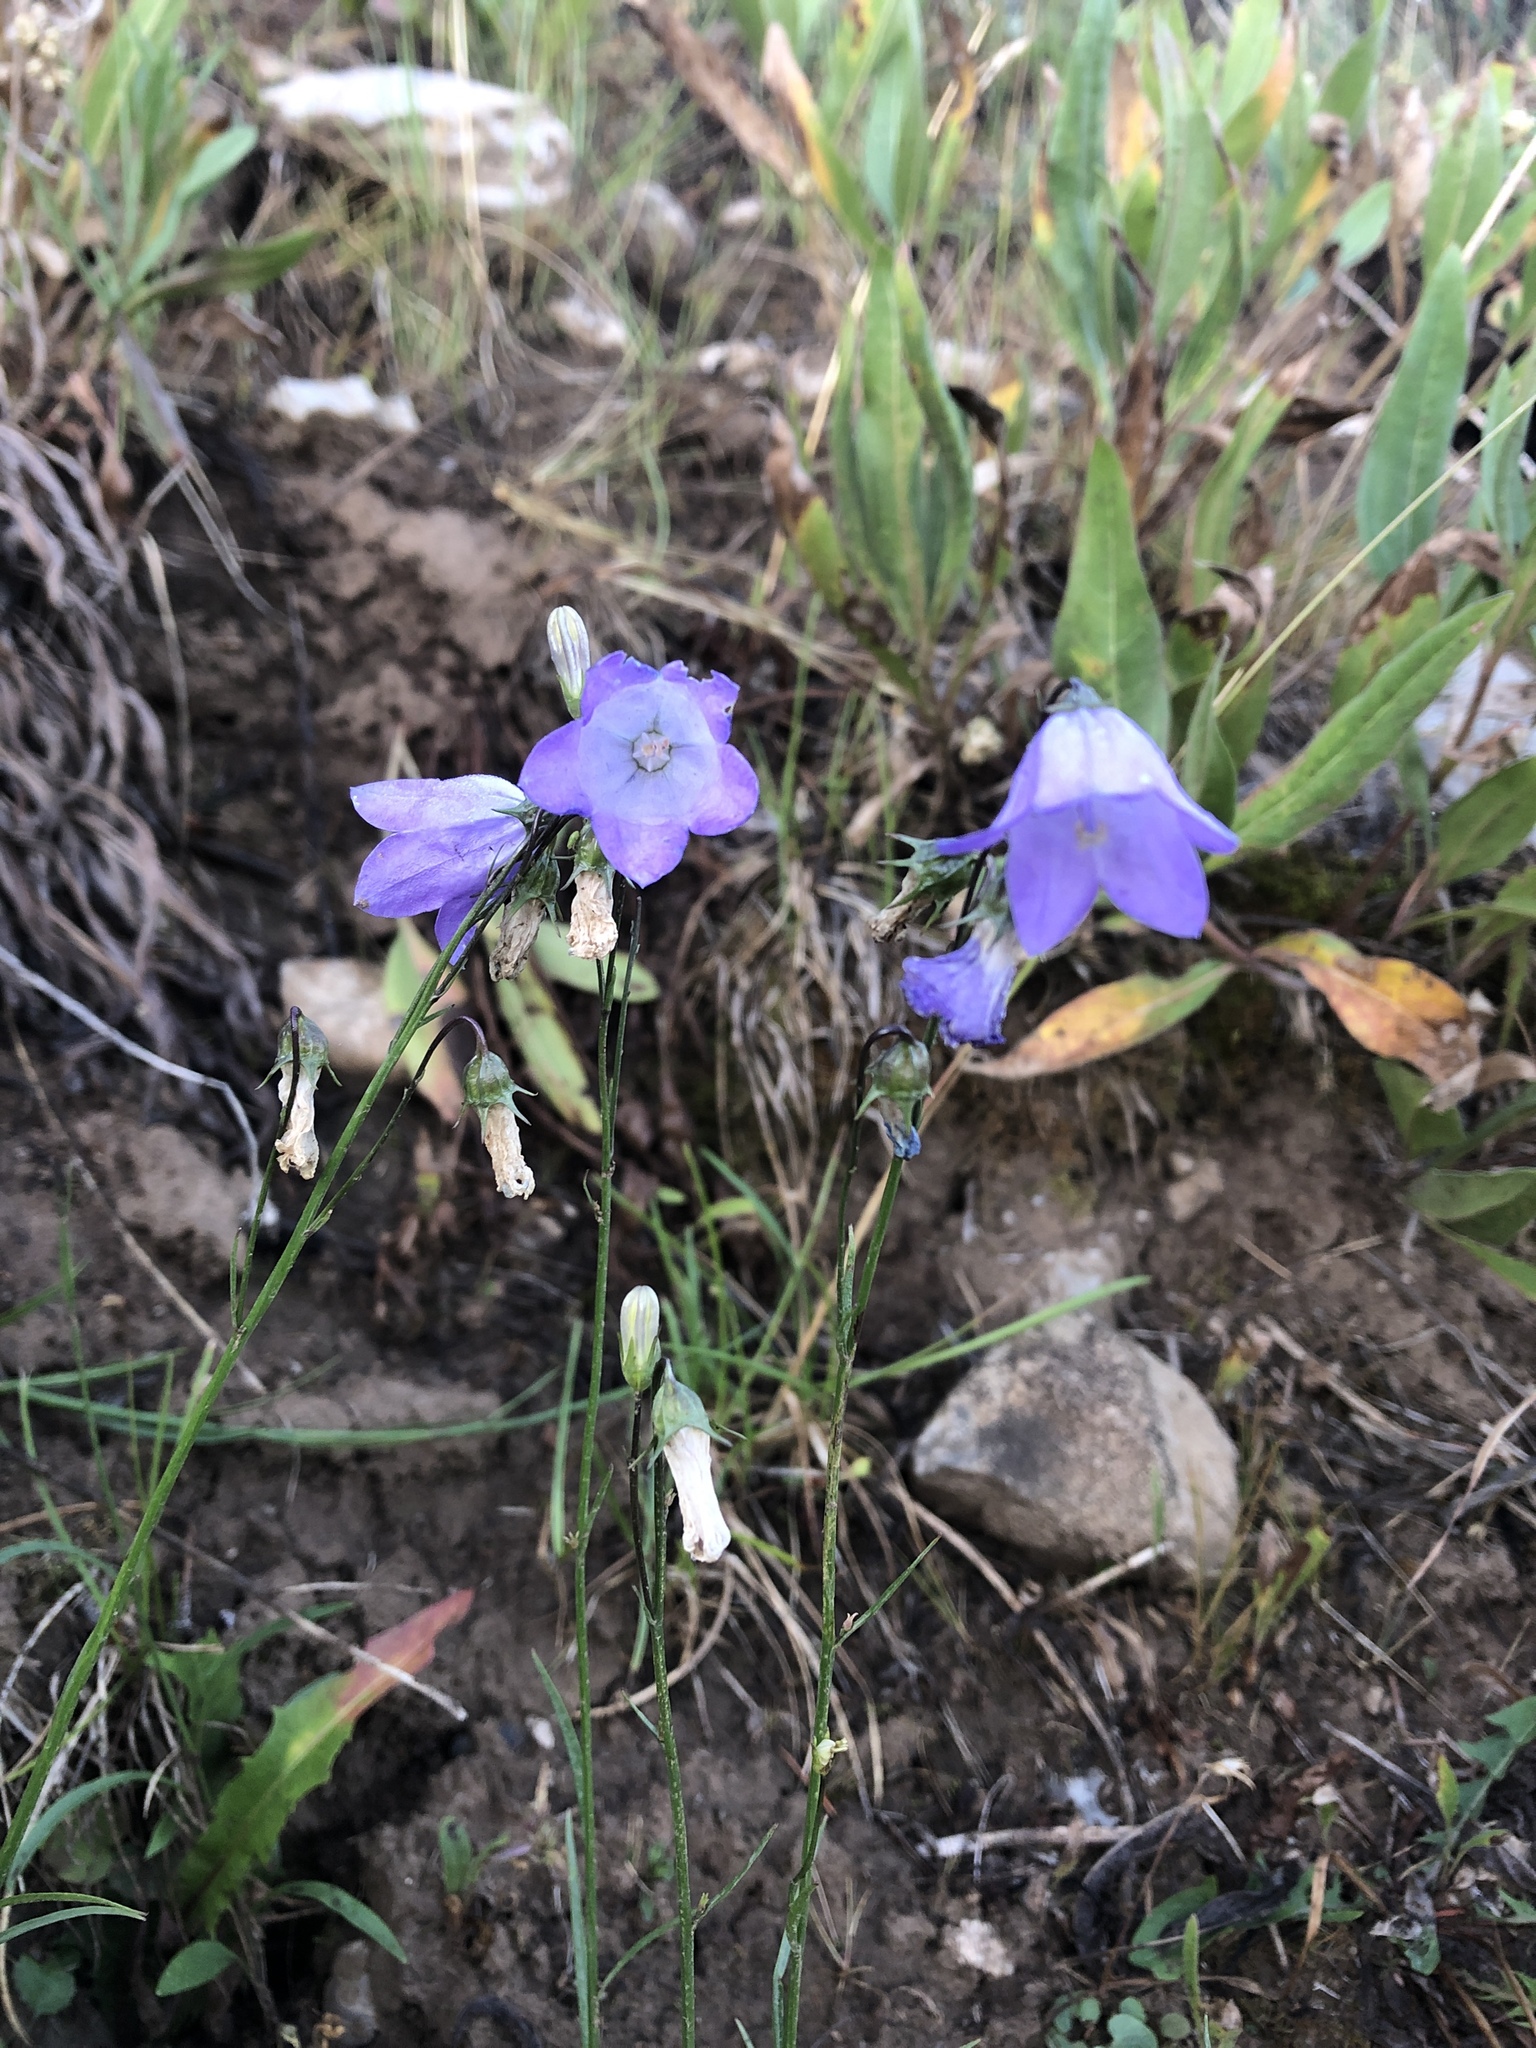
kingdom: Plantae
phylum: Tracheophyta
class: Magnoliopsida
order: Asterales
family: Campanulaceae
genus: Campanula
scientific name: Campanula
